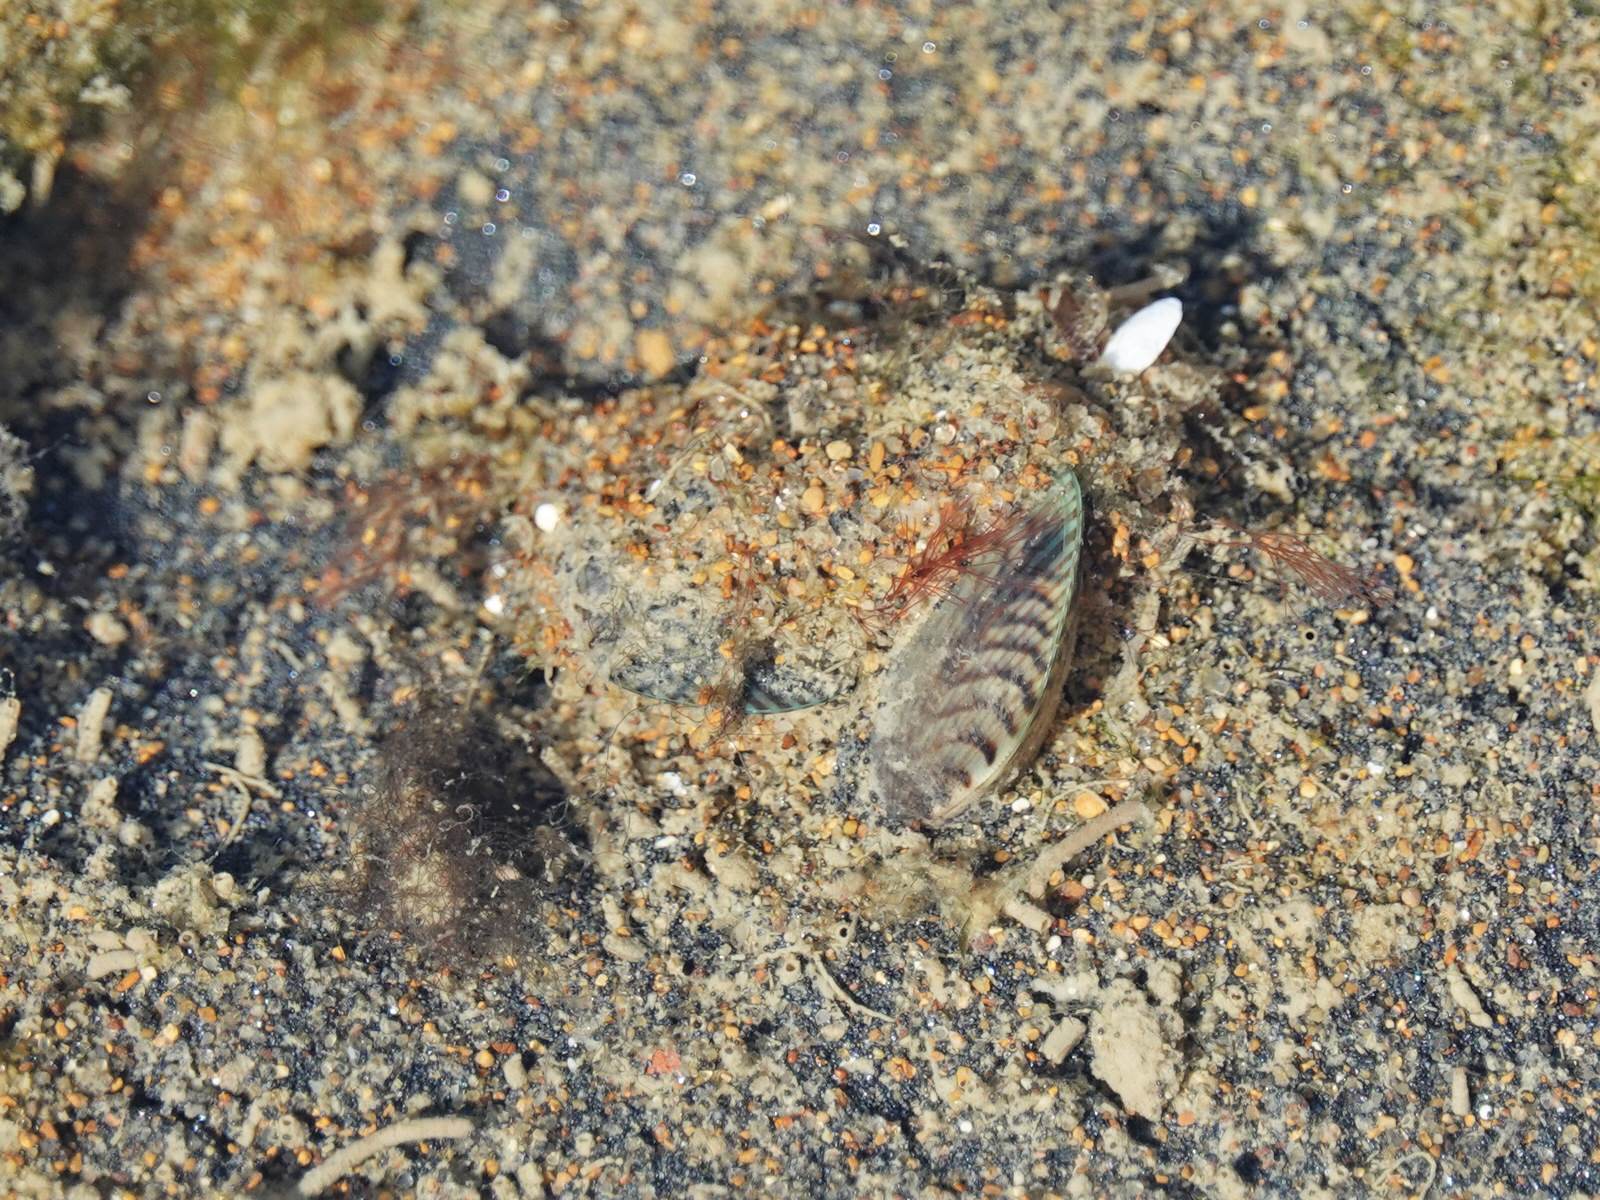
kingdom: Animalia
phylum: Mollusca
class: Bivalvia
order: Mytilida
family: Mytilidae
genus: Arcuatula
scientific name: Arcuatula senhousia
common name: Asian mussel
